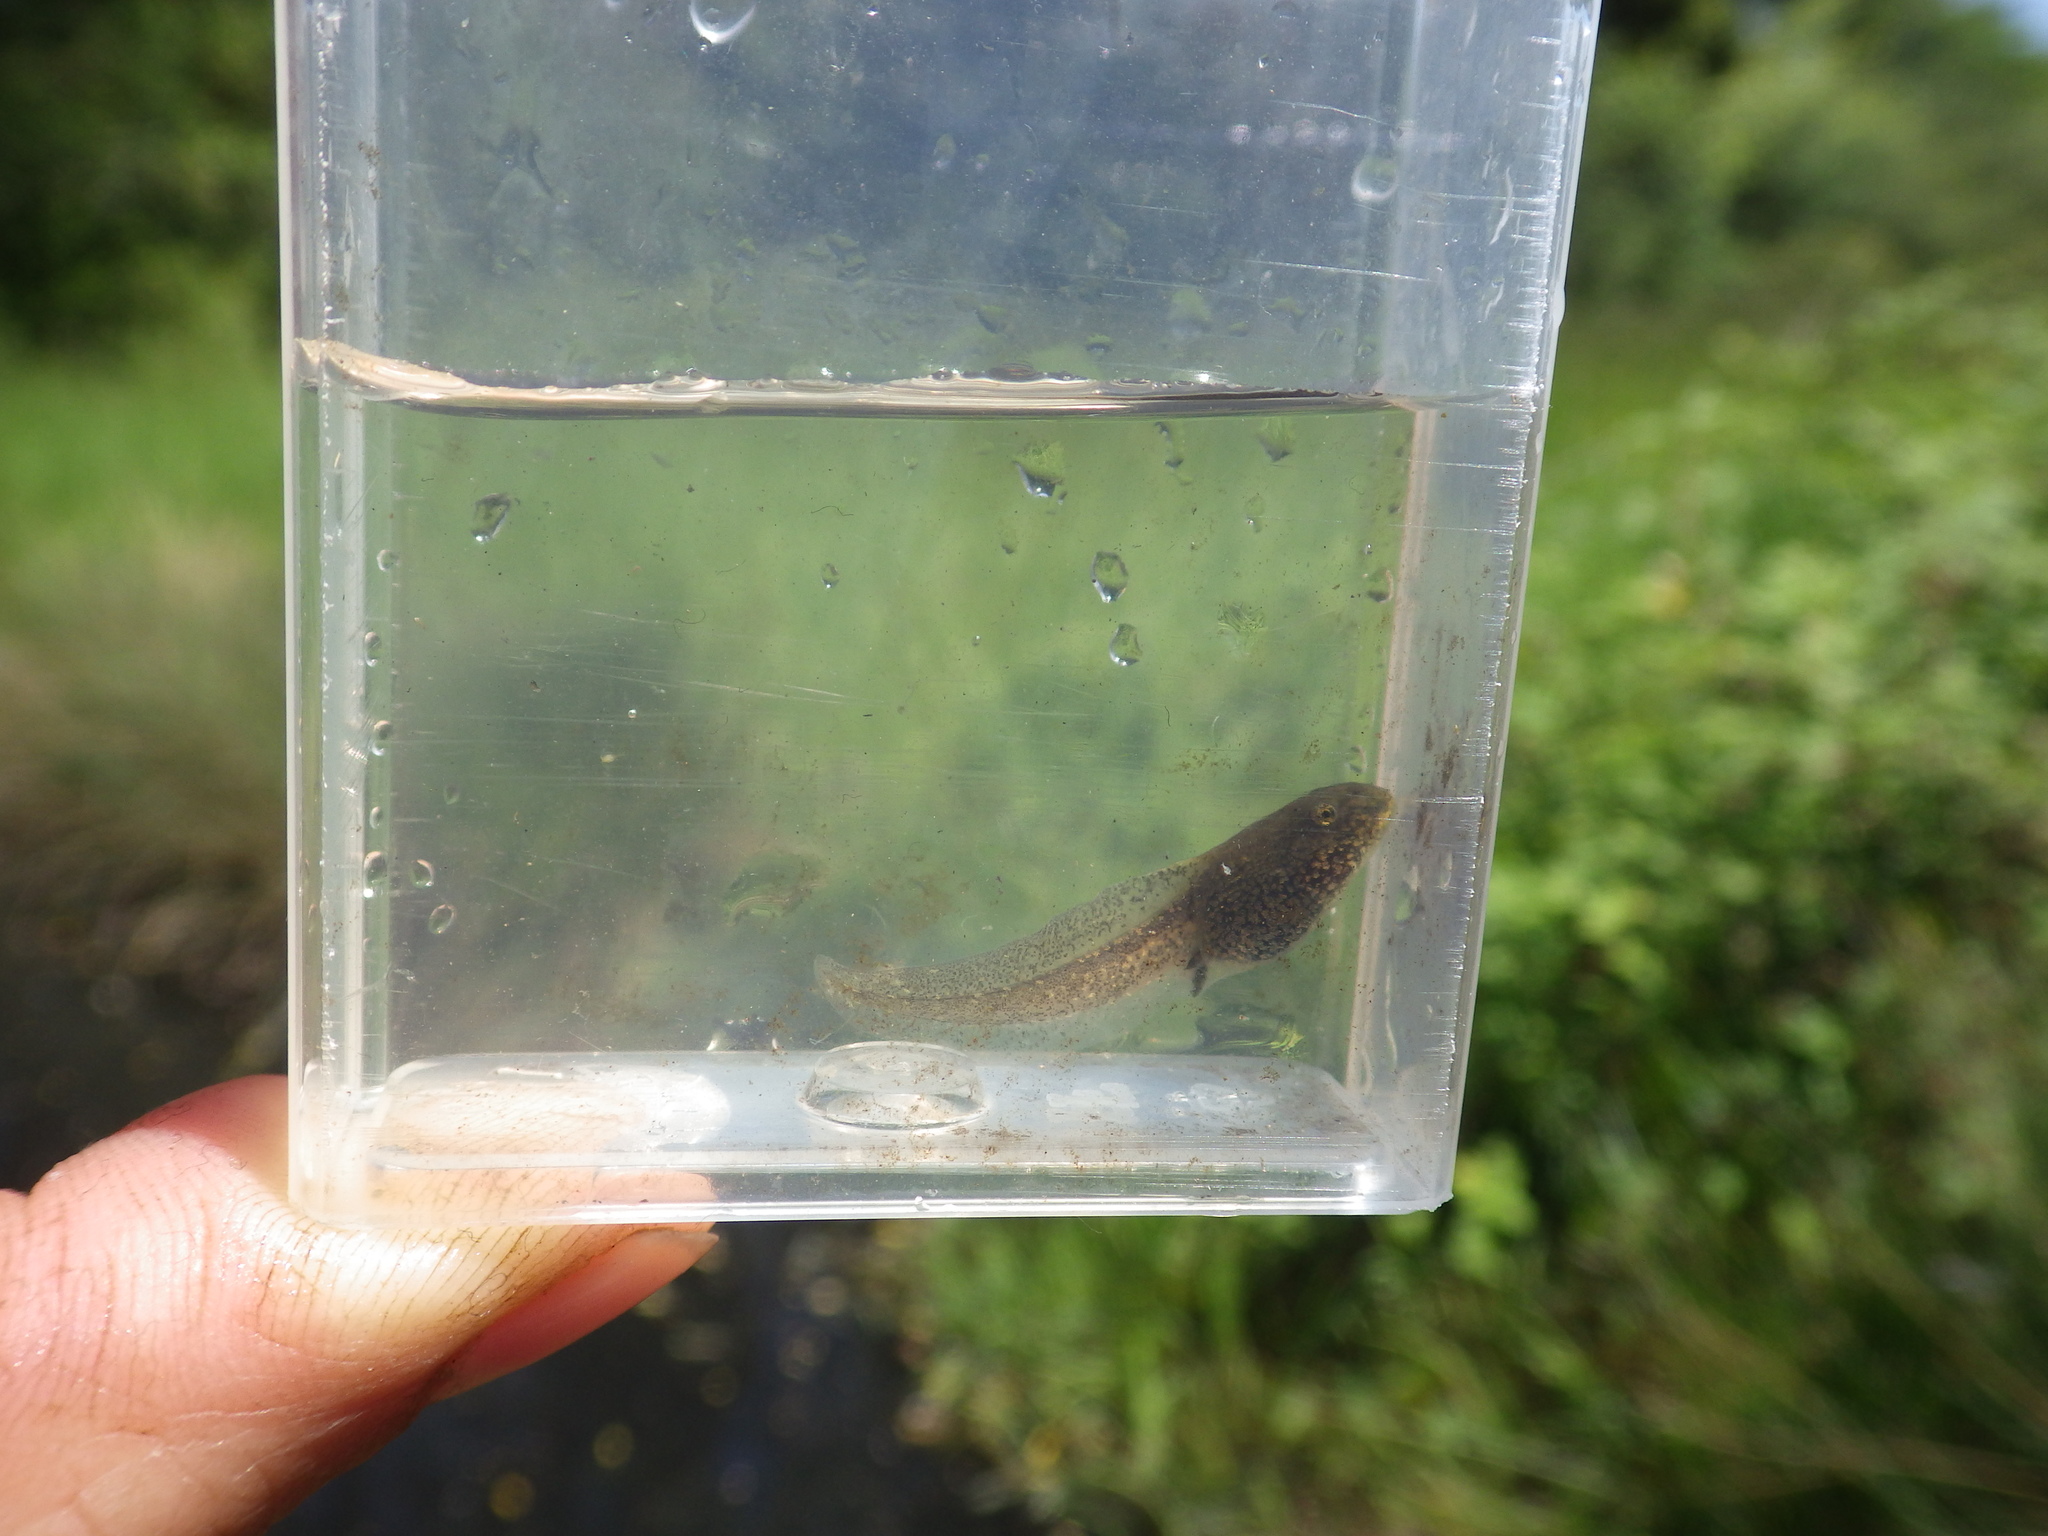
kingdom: Animalia
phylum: Chordata
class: Amphibia
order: Anura
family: Ranidae
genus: Rana
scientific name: Rana temporaria
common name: Common frog
